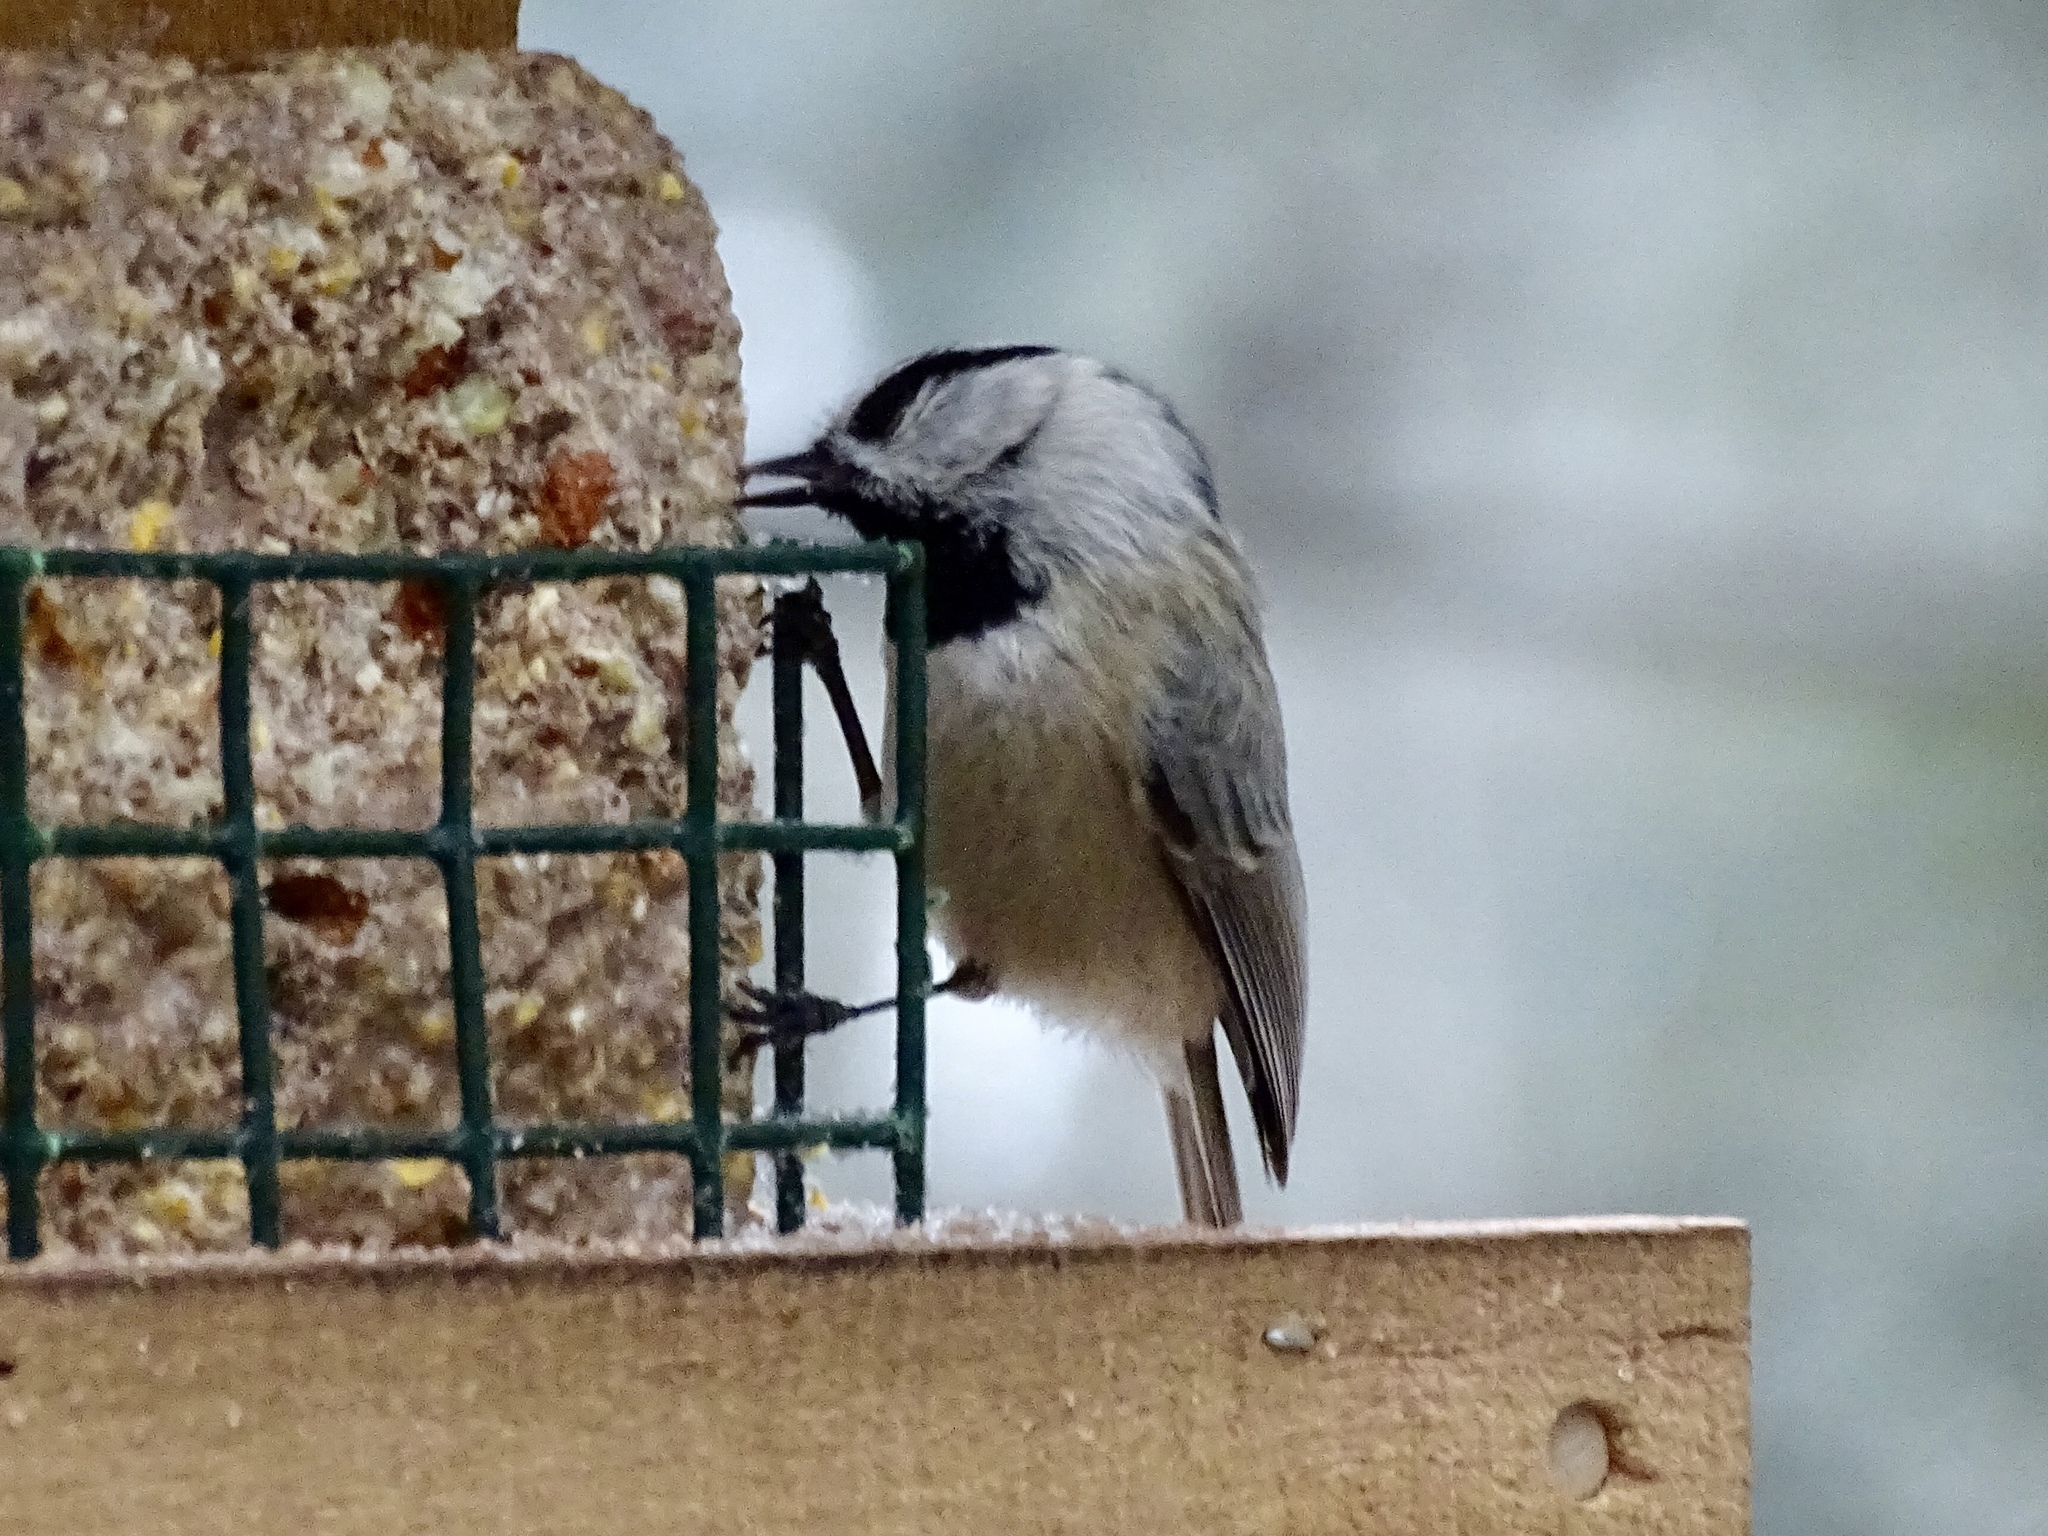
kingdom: Animalia
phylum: Chordata
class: Aves
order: Passeriformes
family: Paridae
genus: Poecile
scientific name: Poecile gambeli
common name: Mountain chickadee
